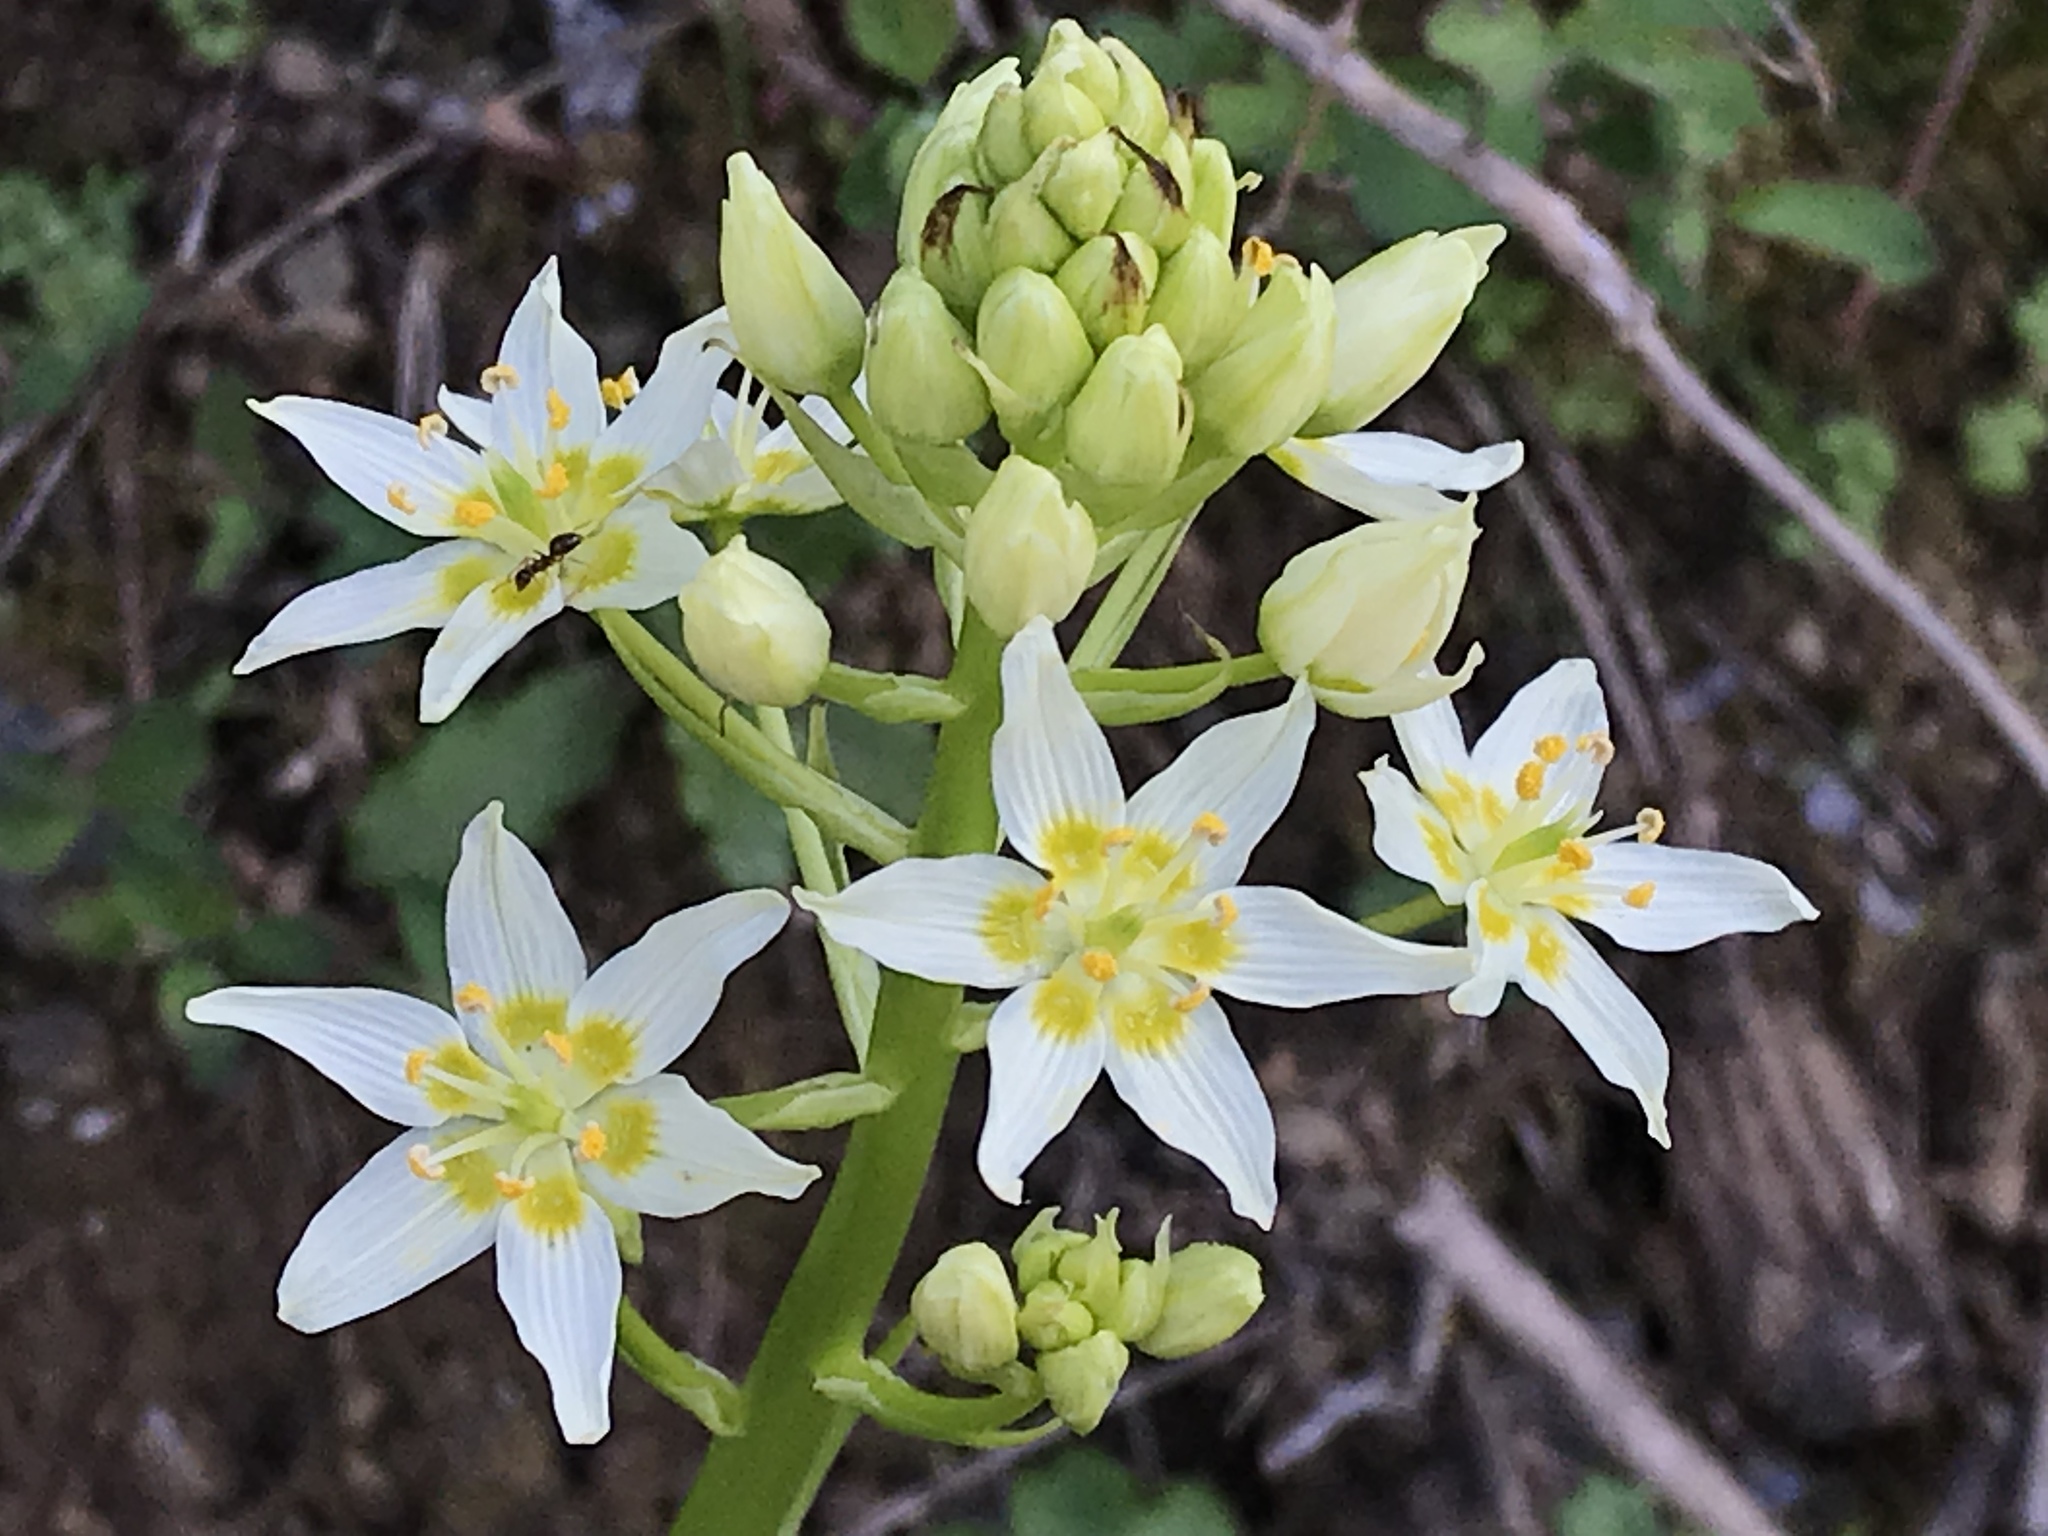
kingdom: Plantae
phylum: Tracheophyta
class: Liliopsida
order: Liliales
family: Melanthiaceae
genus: Toxicoscordion
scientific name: Toxicoscordion fremontii
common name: Fremont's death camas
